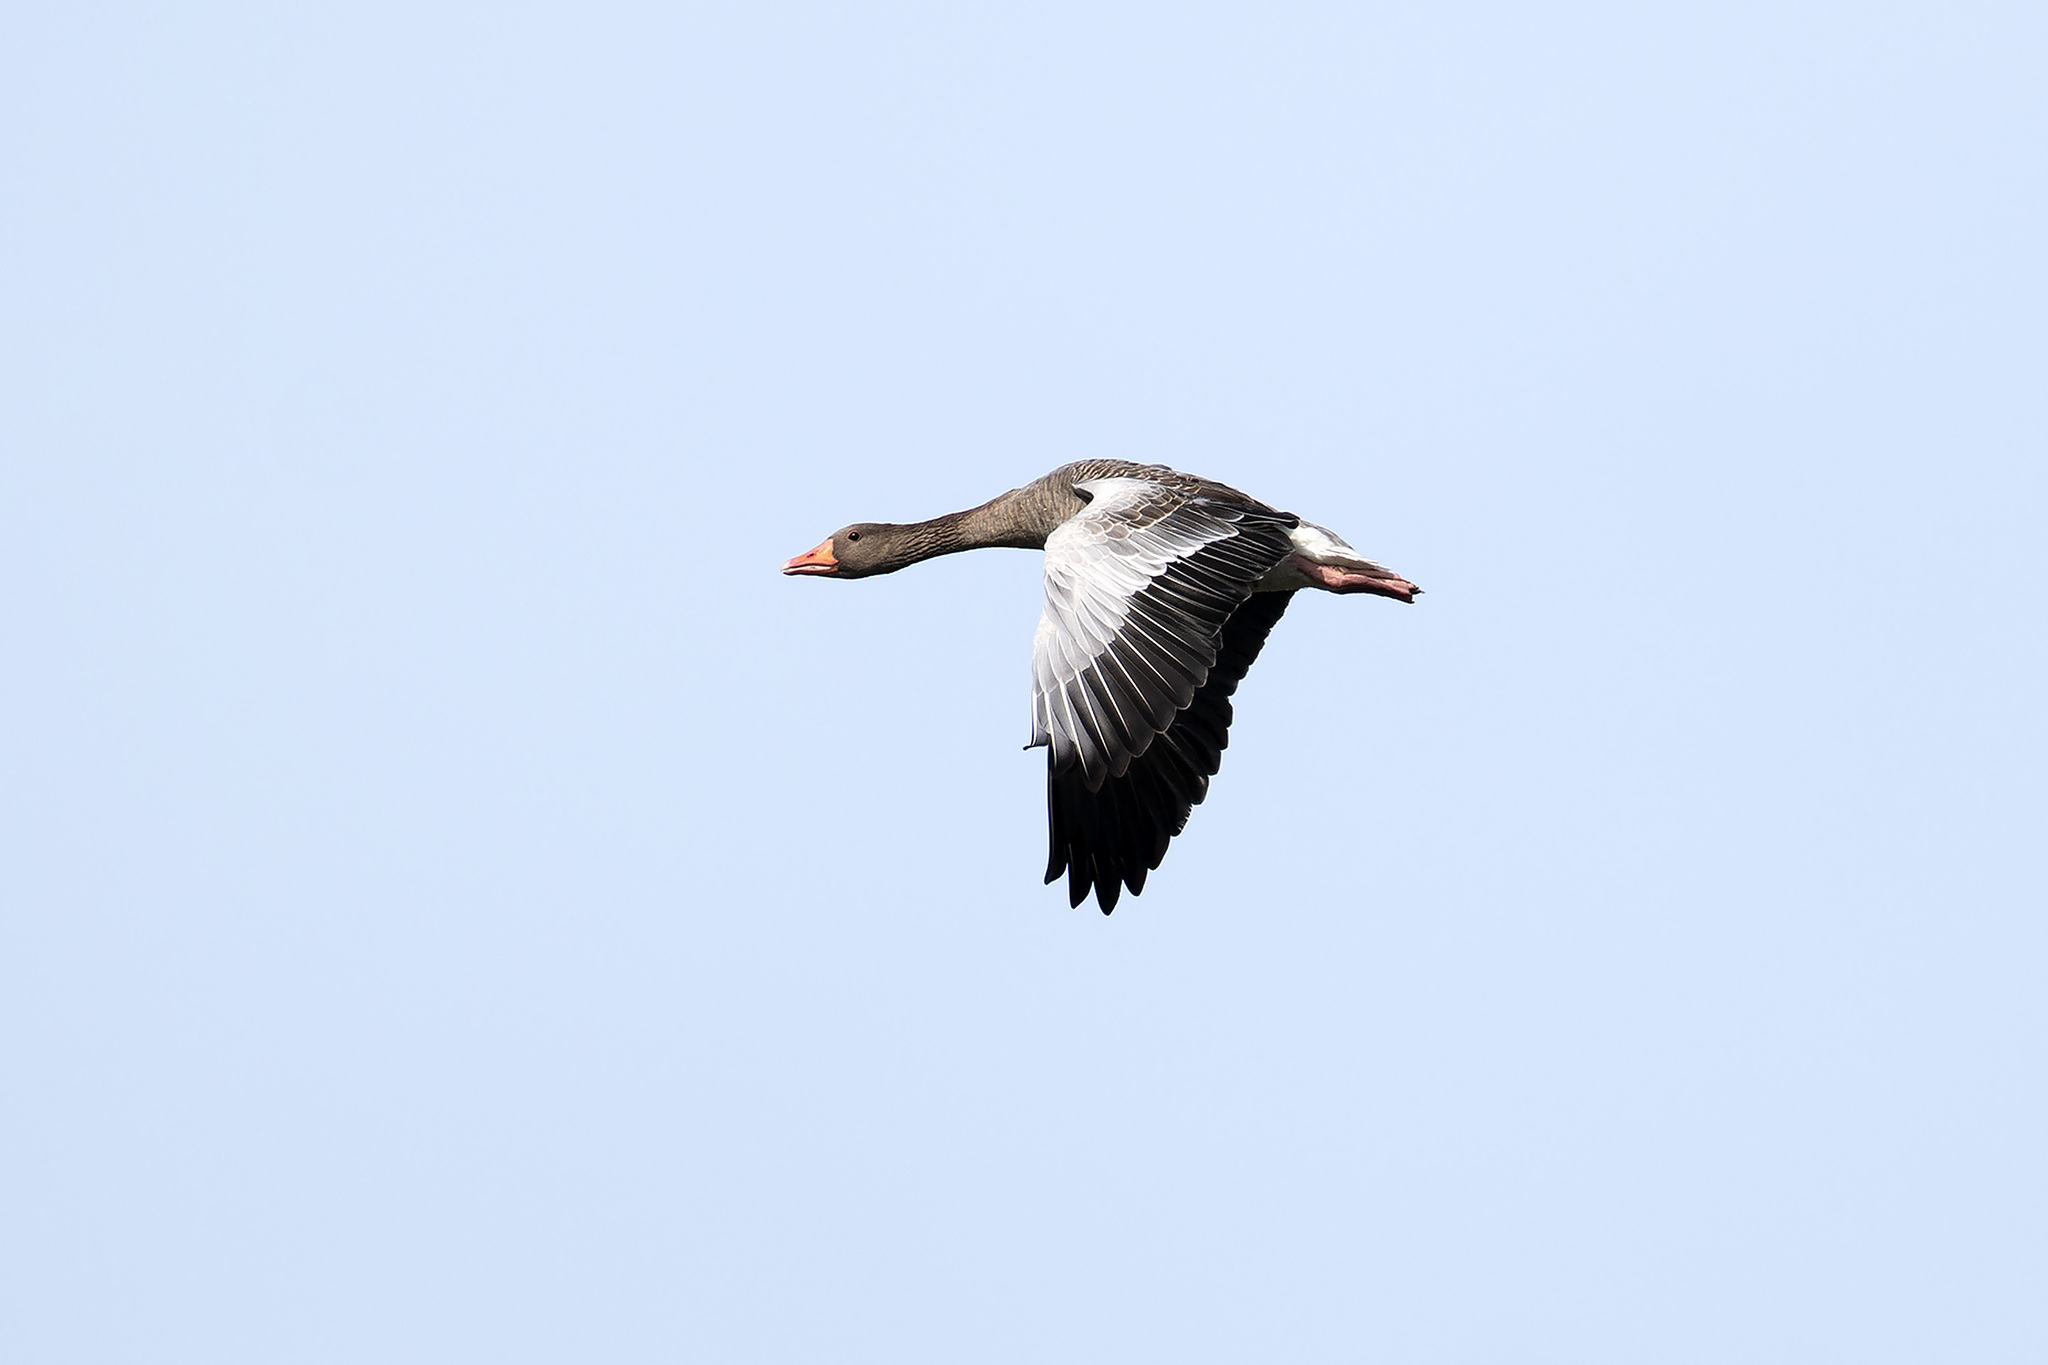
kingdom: Animalia
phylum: Chordata
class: Aves
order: Anseriformes
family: Anatidae
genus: Anser
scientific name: Anser anser
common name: Greylag goose
